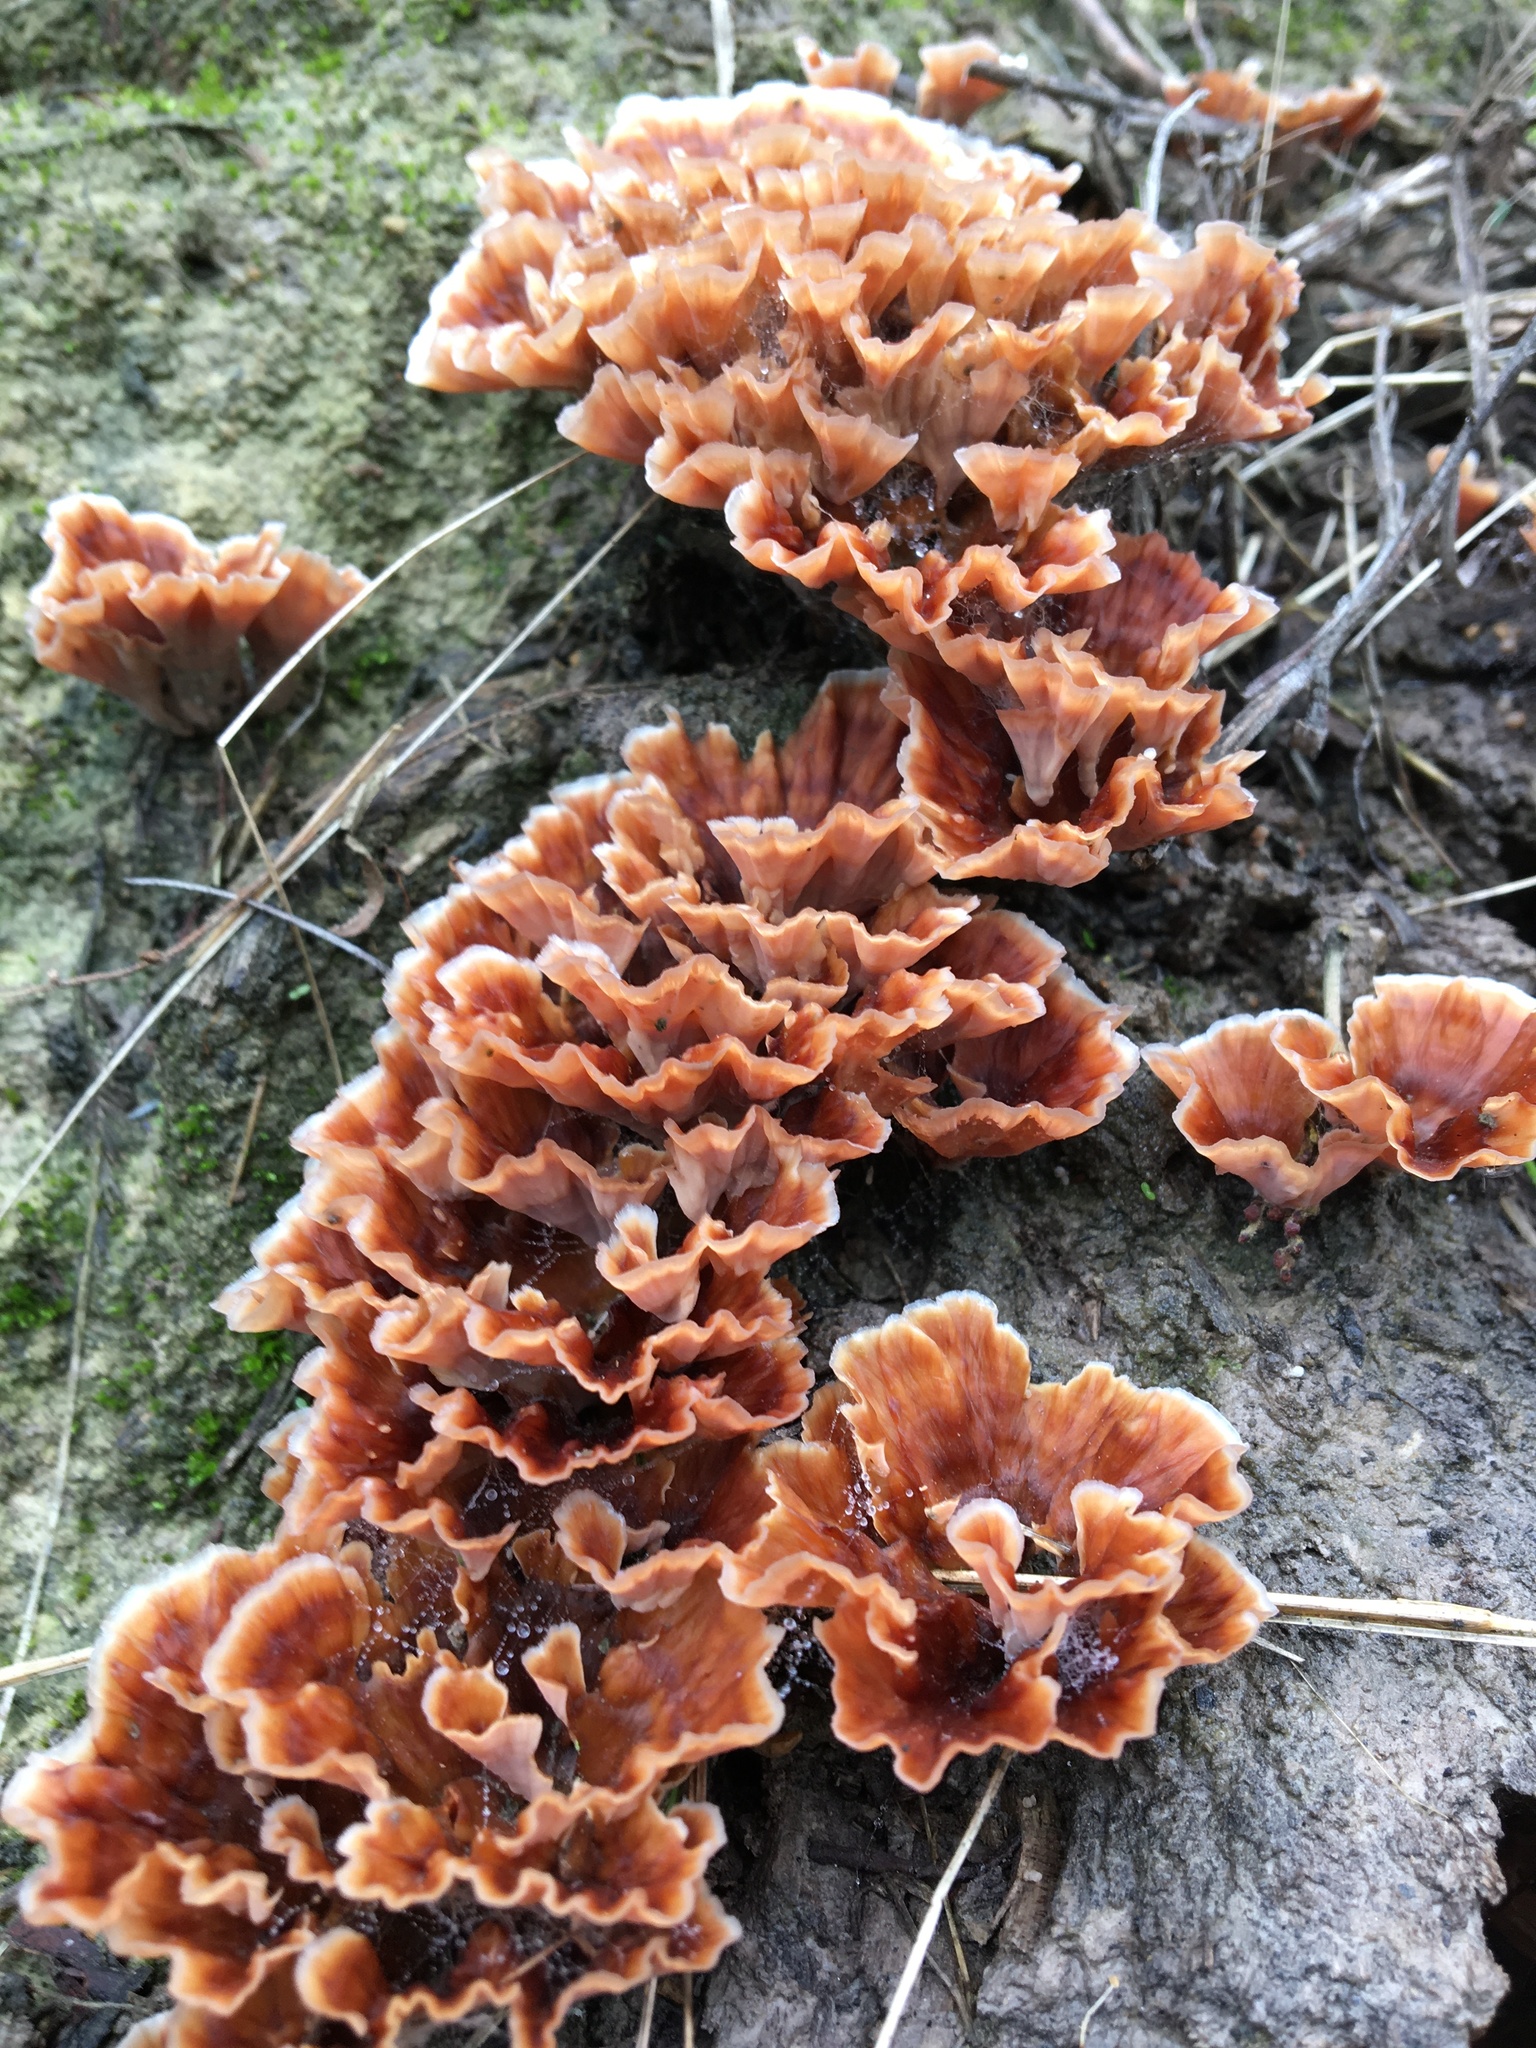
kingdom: Fungi
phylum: Basidiomycota
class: Agaricomycetes
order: Polyporales
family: Podoscyphaceae
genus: Podoscypha
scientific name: Podoscypha petalodes
